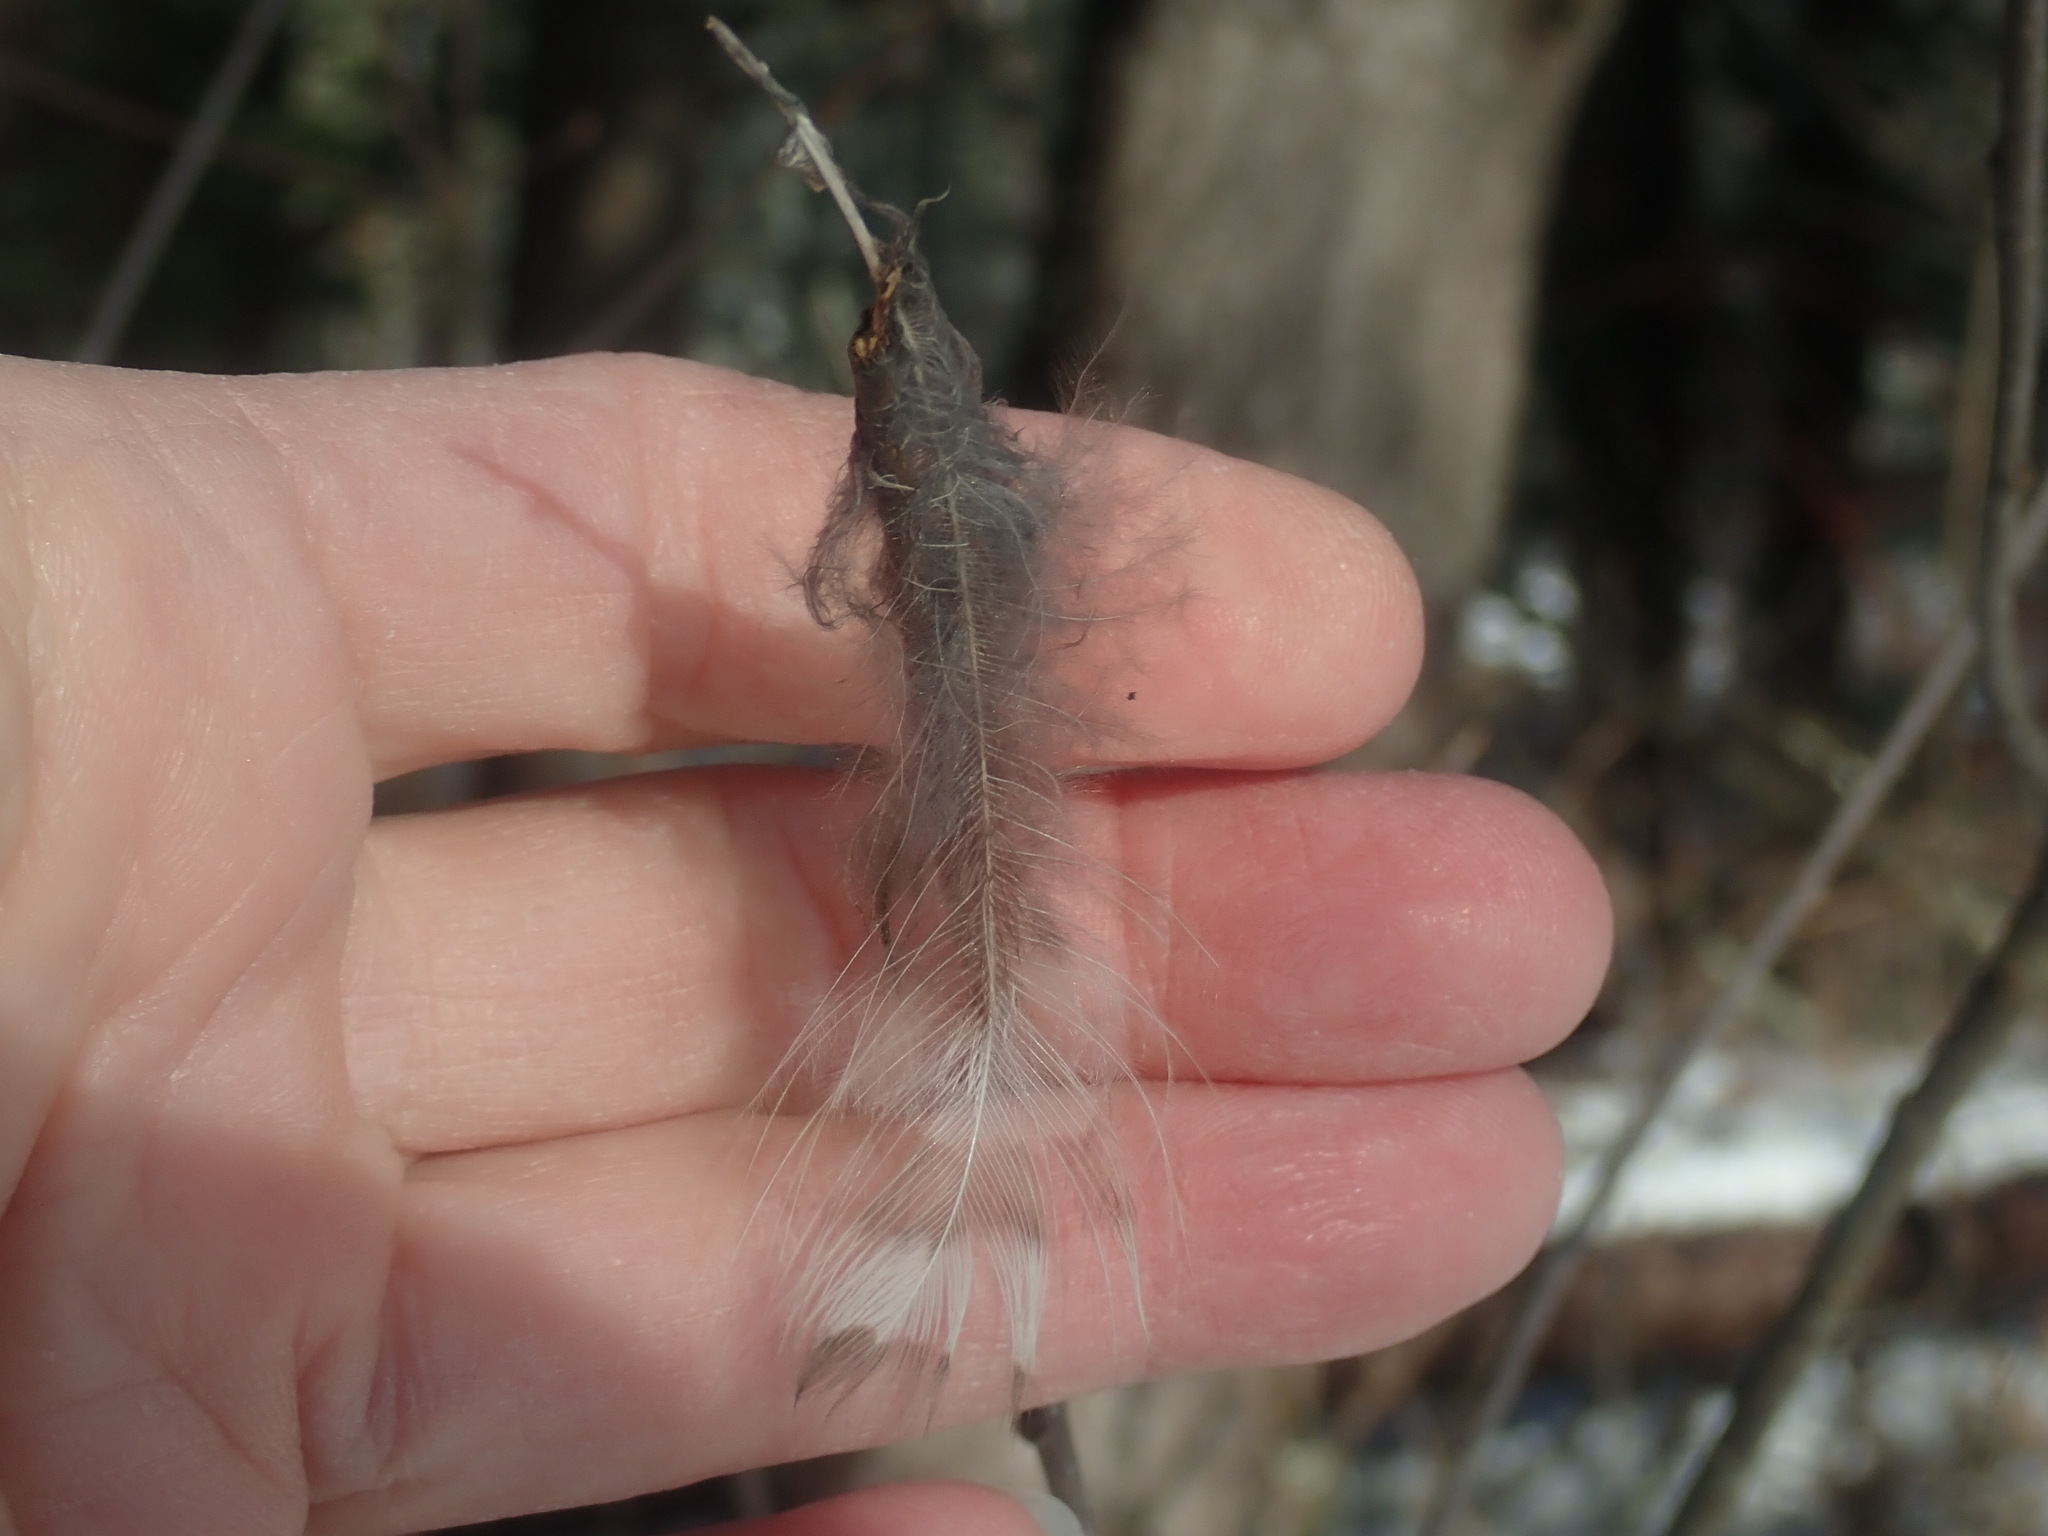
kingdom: Animalia
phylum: Chordata
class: Aves
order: Strigiformes
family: Strigidae
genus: Strix
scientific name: Strix varia
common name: Barred owl
